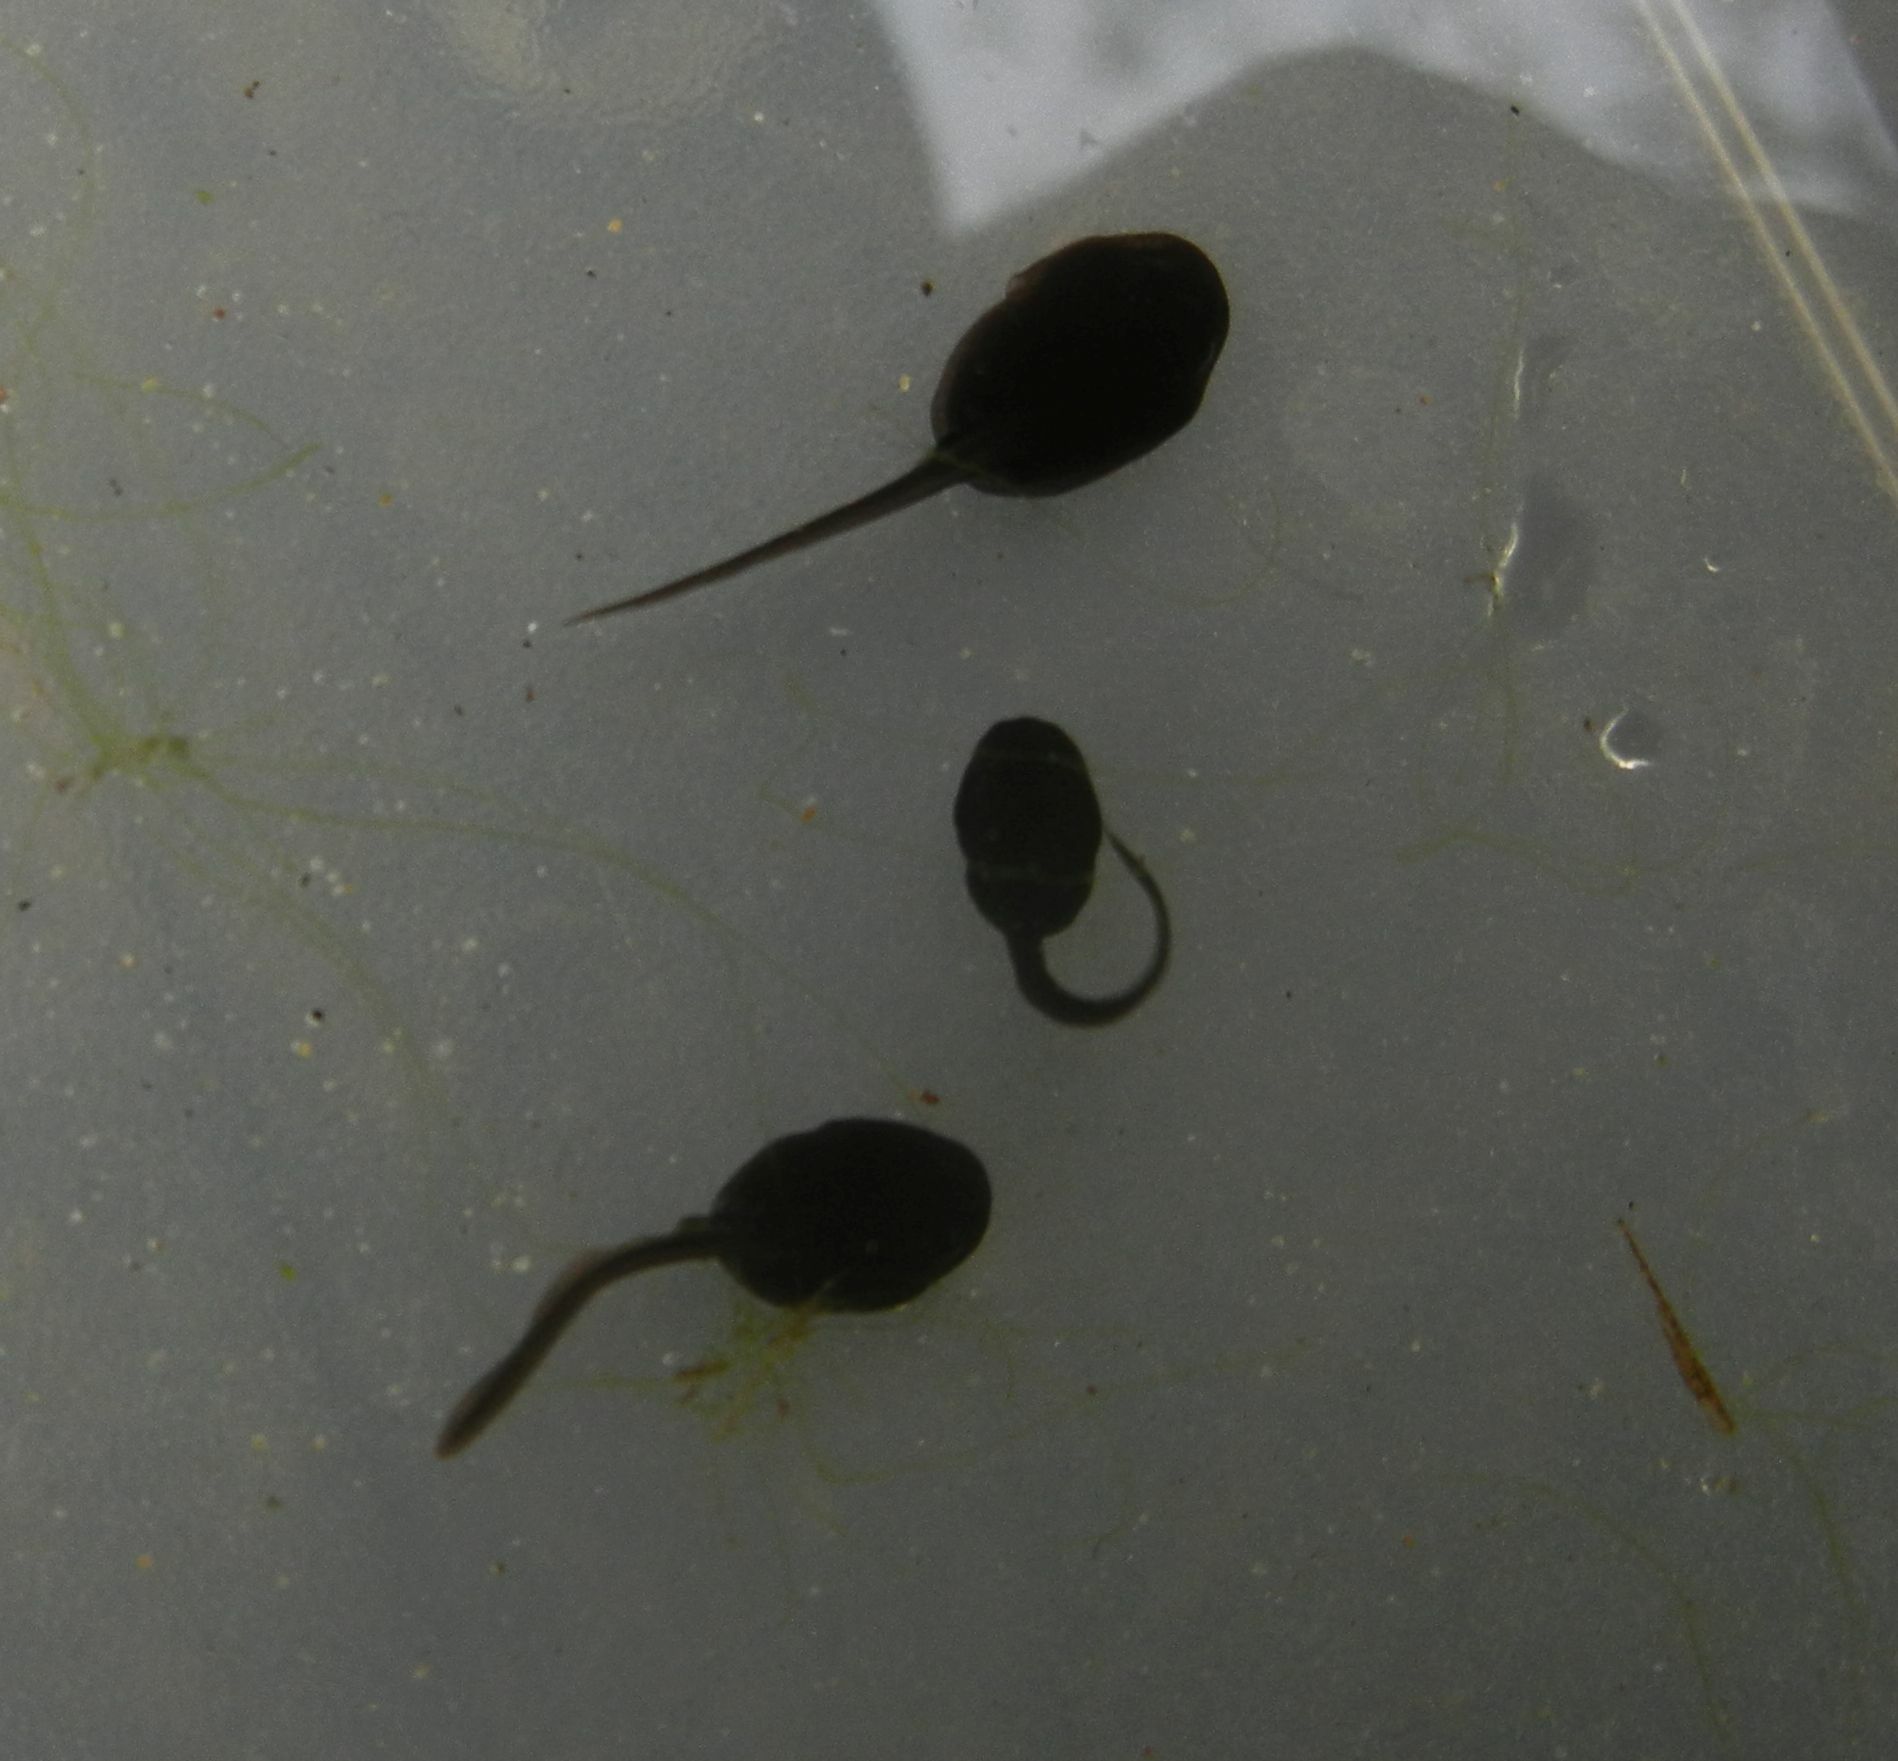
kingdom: Animalia
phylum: Chordata
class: Amphibia
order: Anura
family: Bufonidae
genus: Bufo
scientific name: Bufo bufo
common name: Common toad
